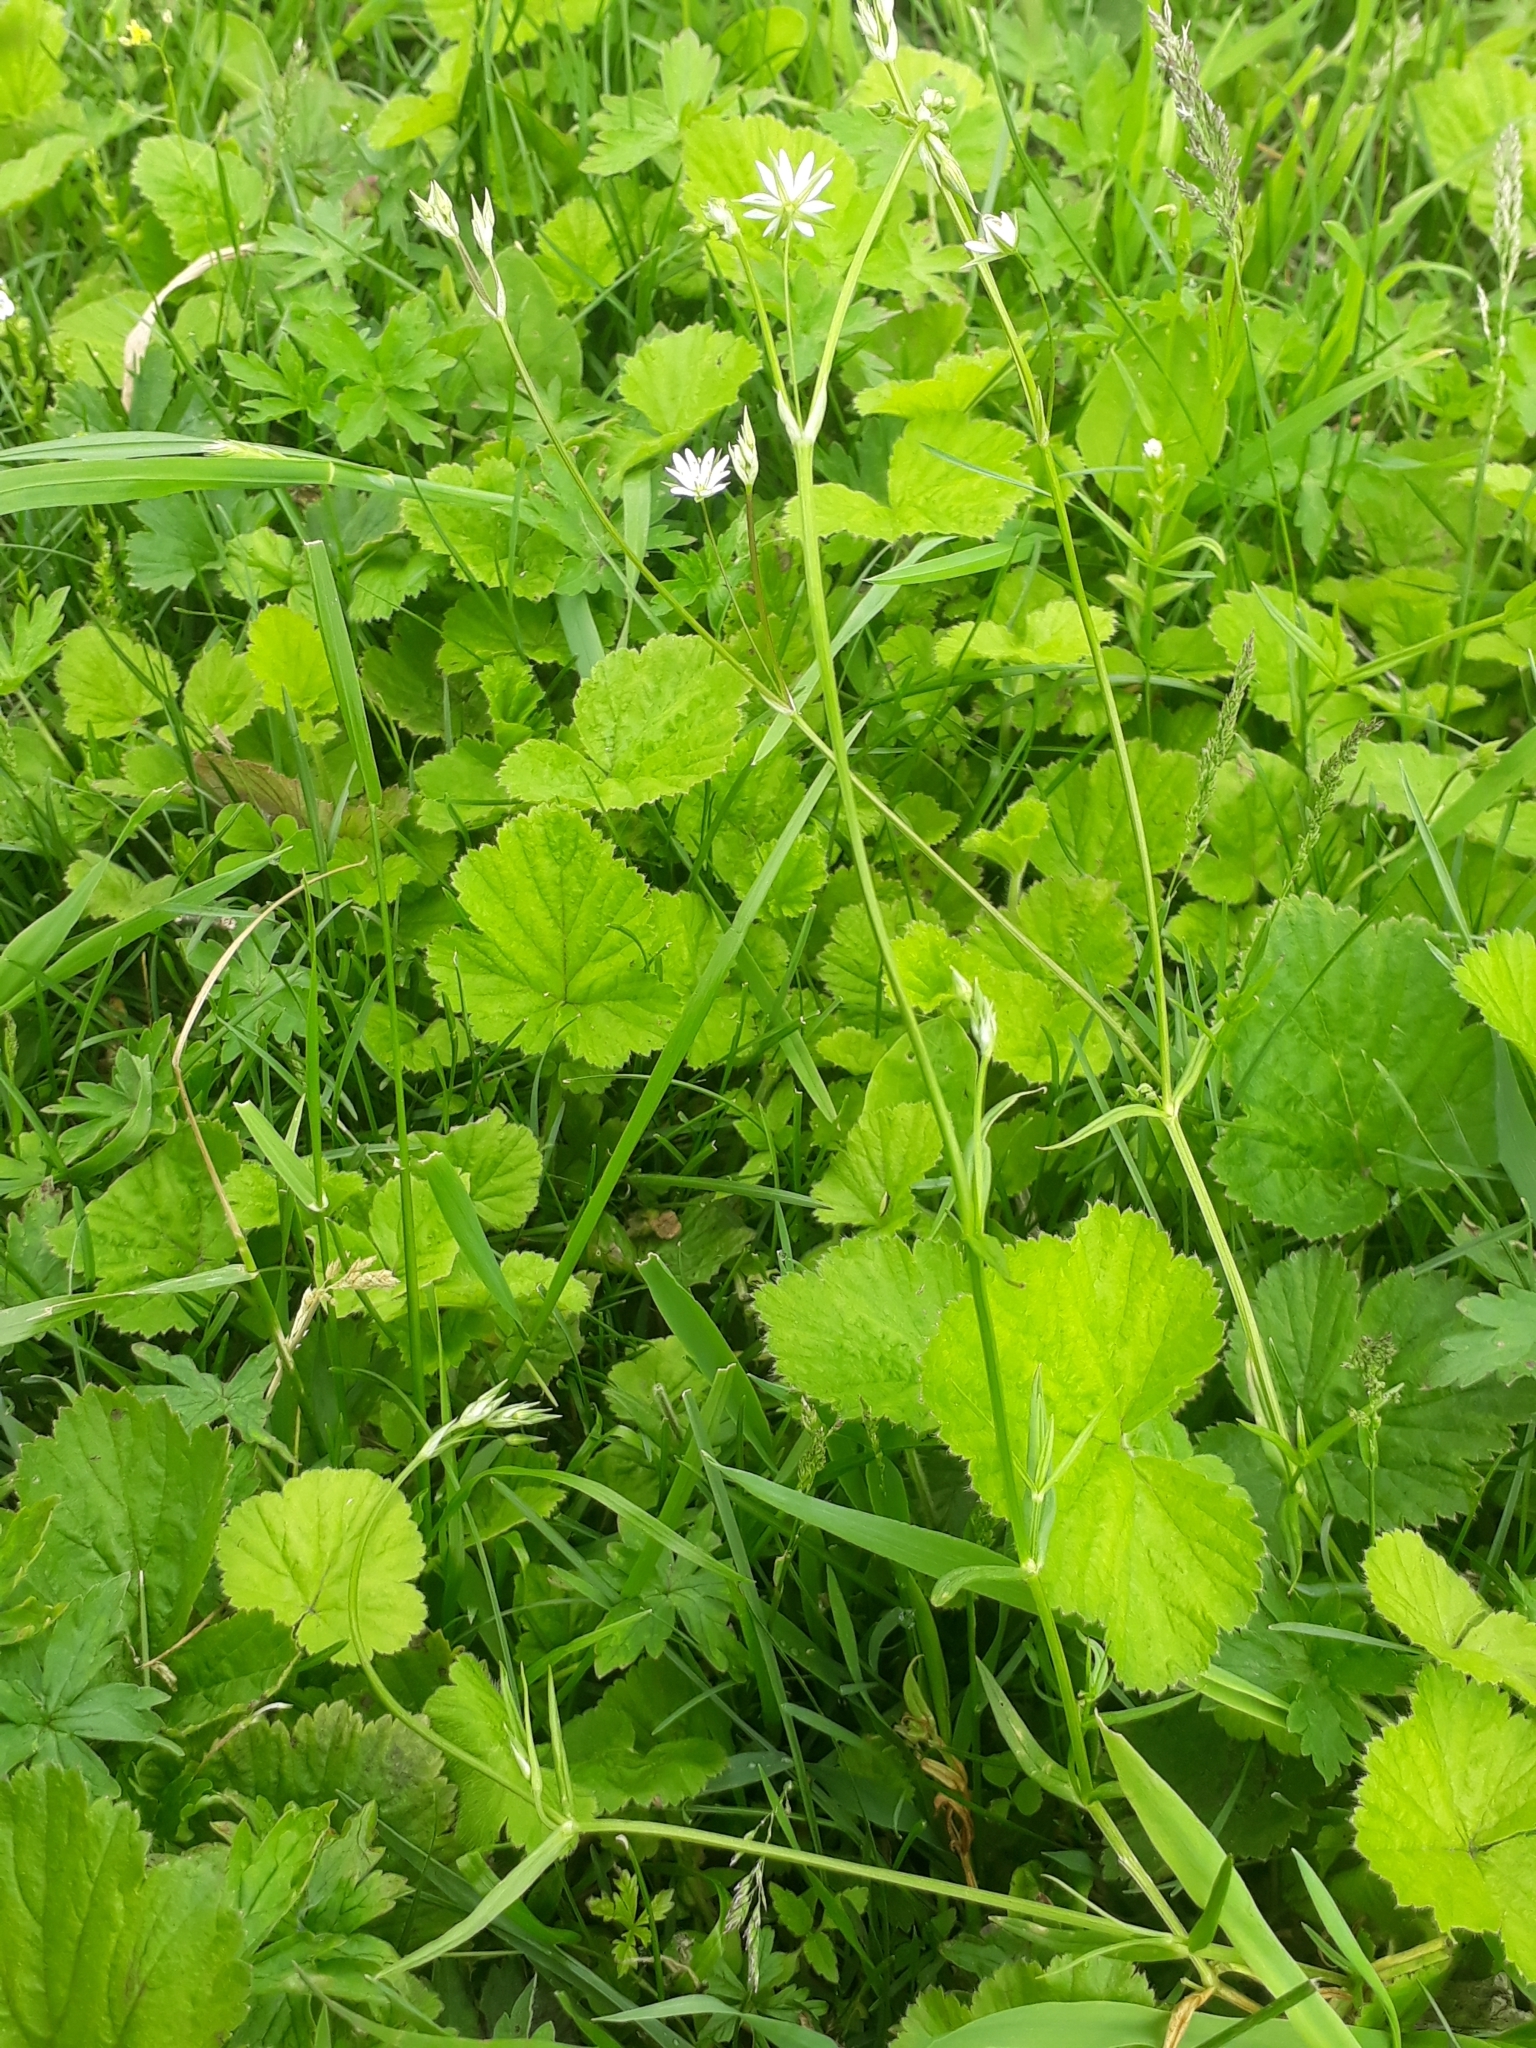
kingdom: Plantae
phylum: Tracheophyta
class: Magnoliopsida
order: Caryophyllales
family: Caryophyllaceae
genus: Stellaria
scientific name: Stellaria graminea
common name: Grass-like starwort
